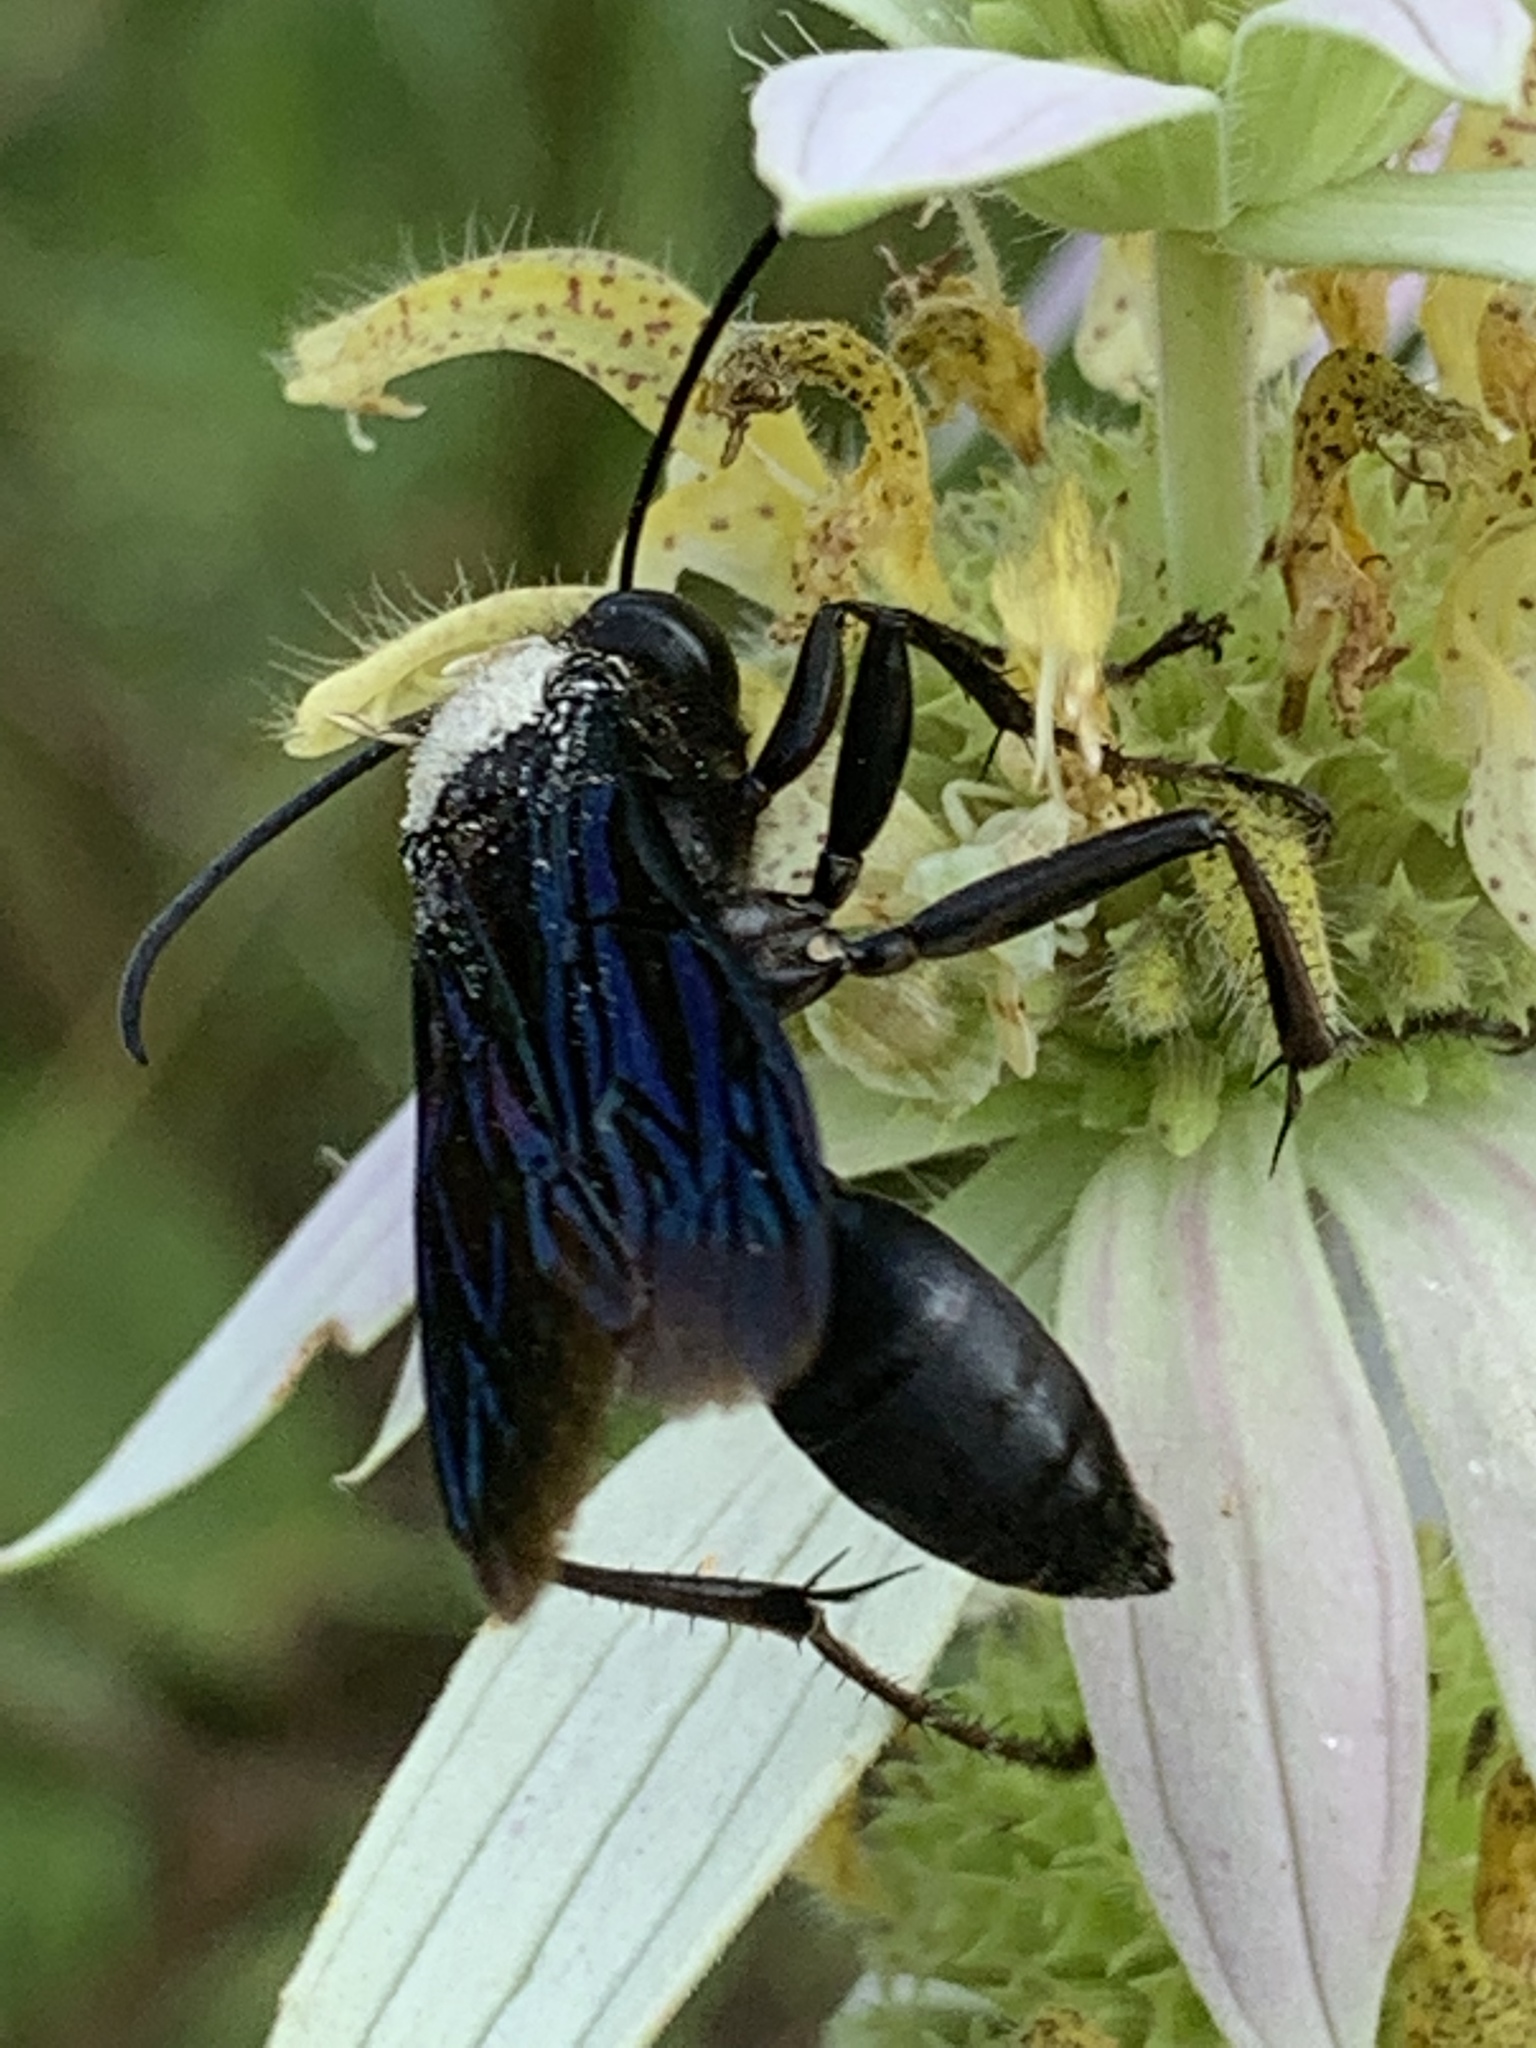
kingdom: Animalia
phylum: Arthropoda
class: Insecta
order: Hymenoptera
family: Sphecidae
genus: Sphex
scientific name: Sphex pensylvanicus
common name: Great black digger wasp
